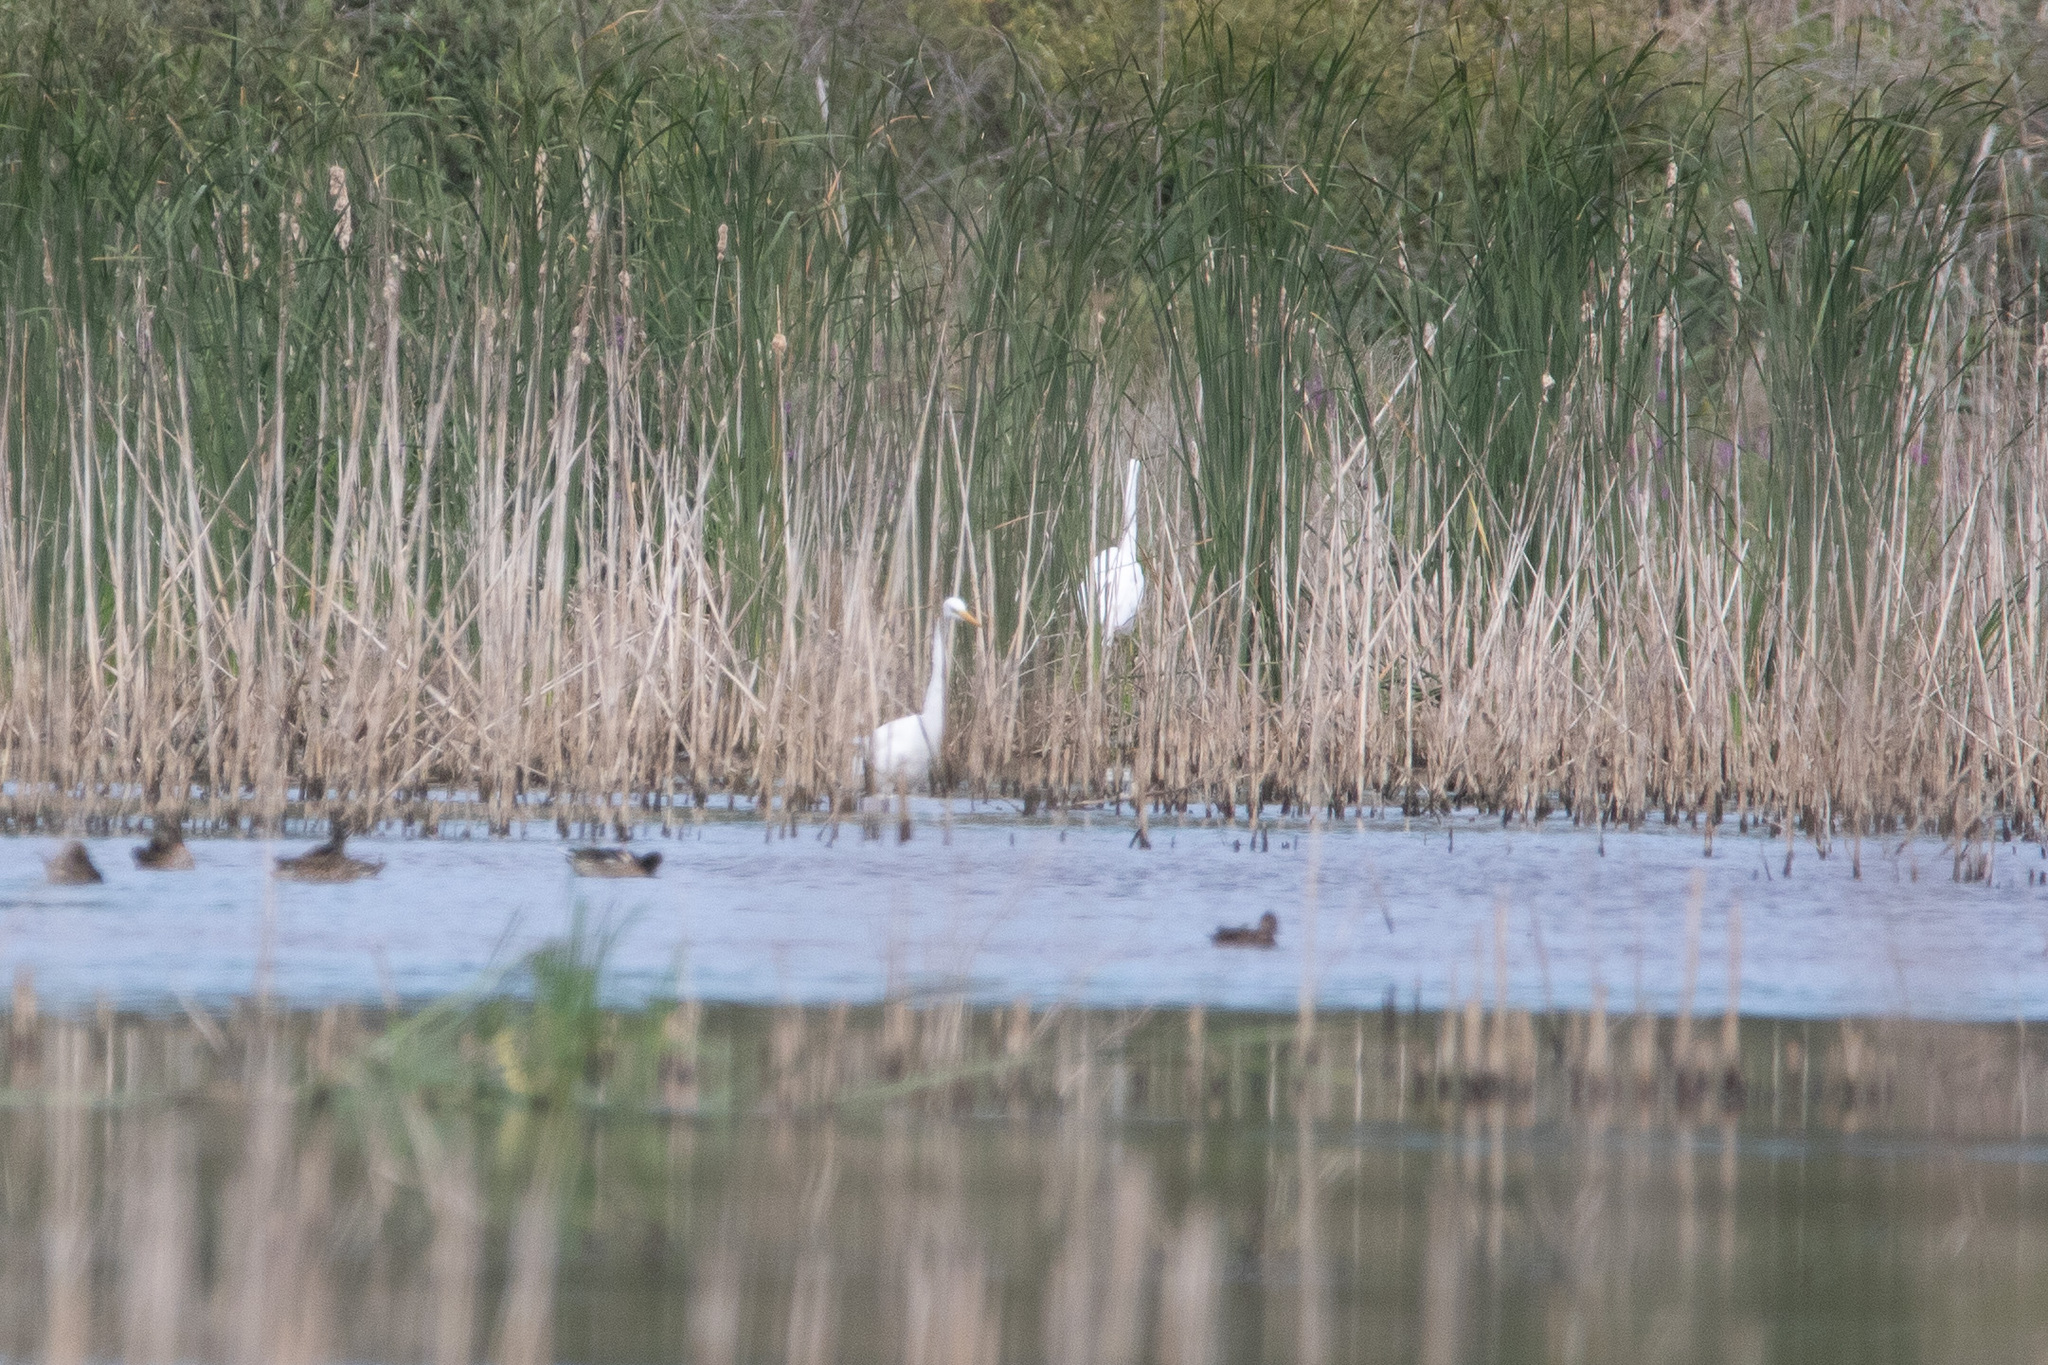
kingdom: Animalia
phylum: Chordata
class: Aves
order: Pelecaniformes
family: Ardeidae
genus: Ardea
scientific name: Ardea alba
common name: Great egret
